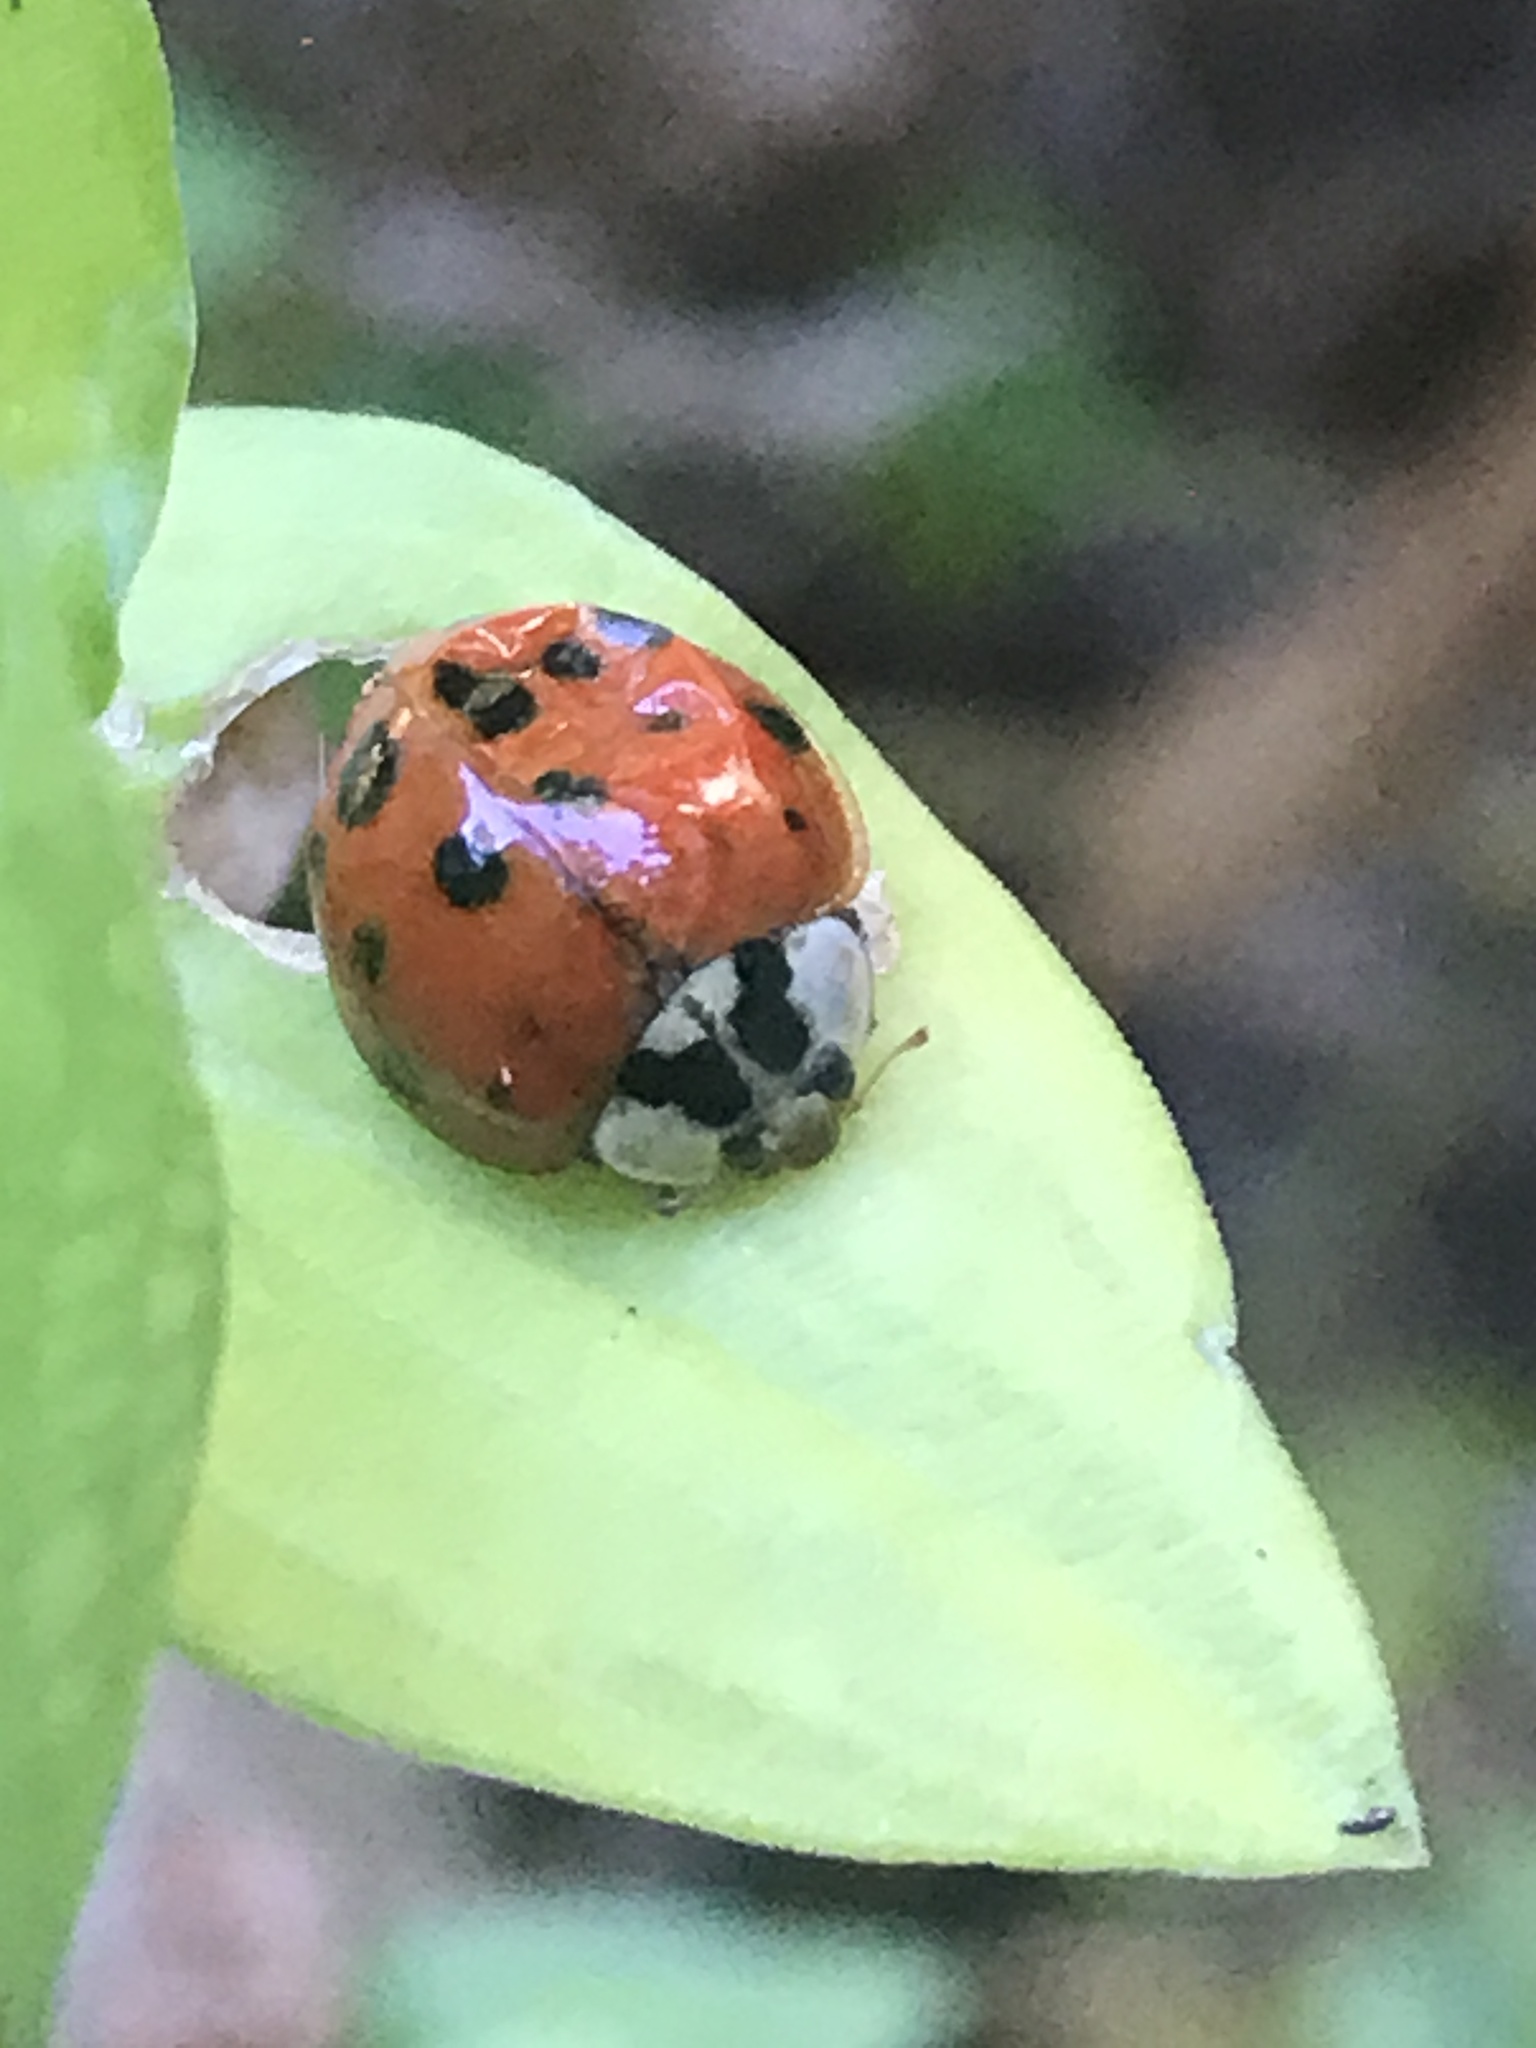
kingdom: Animalia
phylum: Arthropoda
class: Insecta
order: Coleoptera
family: Coccinellidae
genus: Harmonia
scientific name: Harmonia axyridis
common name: Harlequin ladybird
